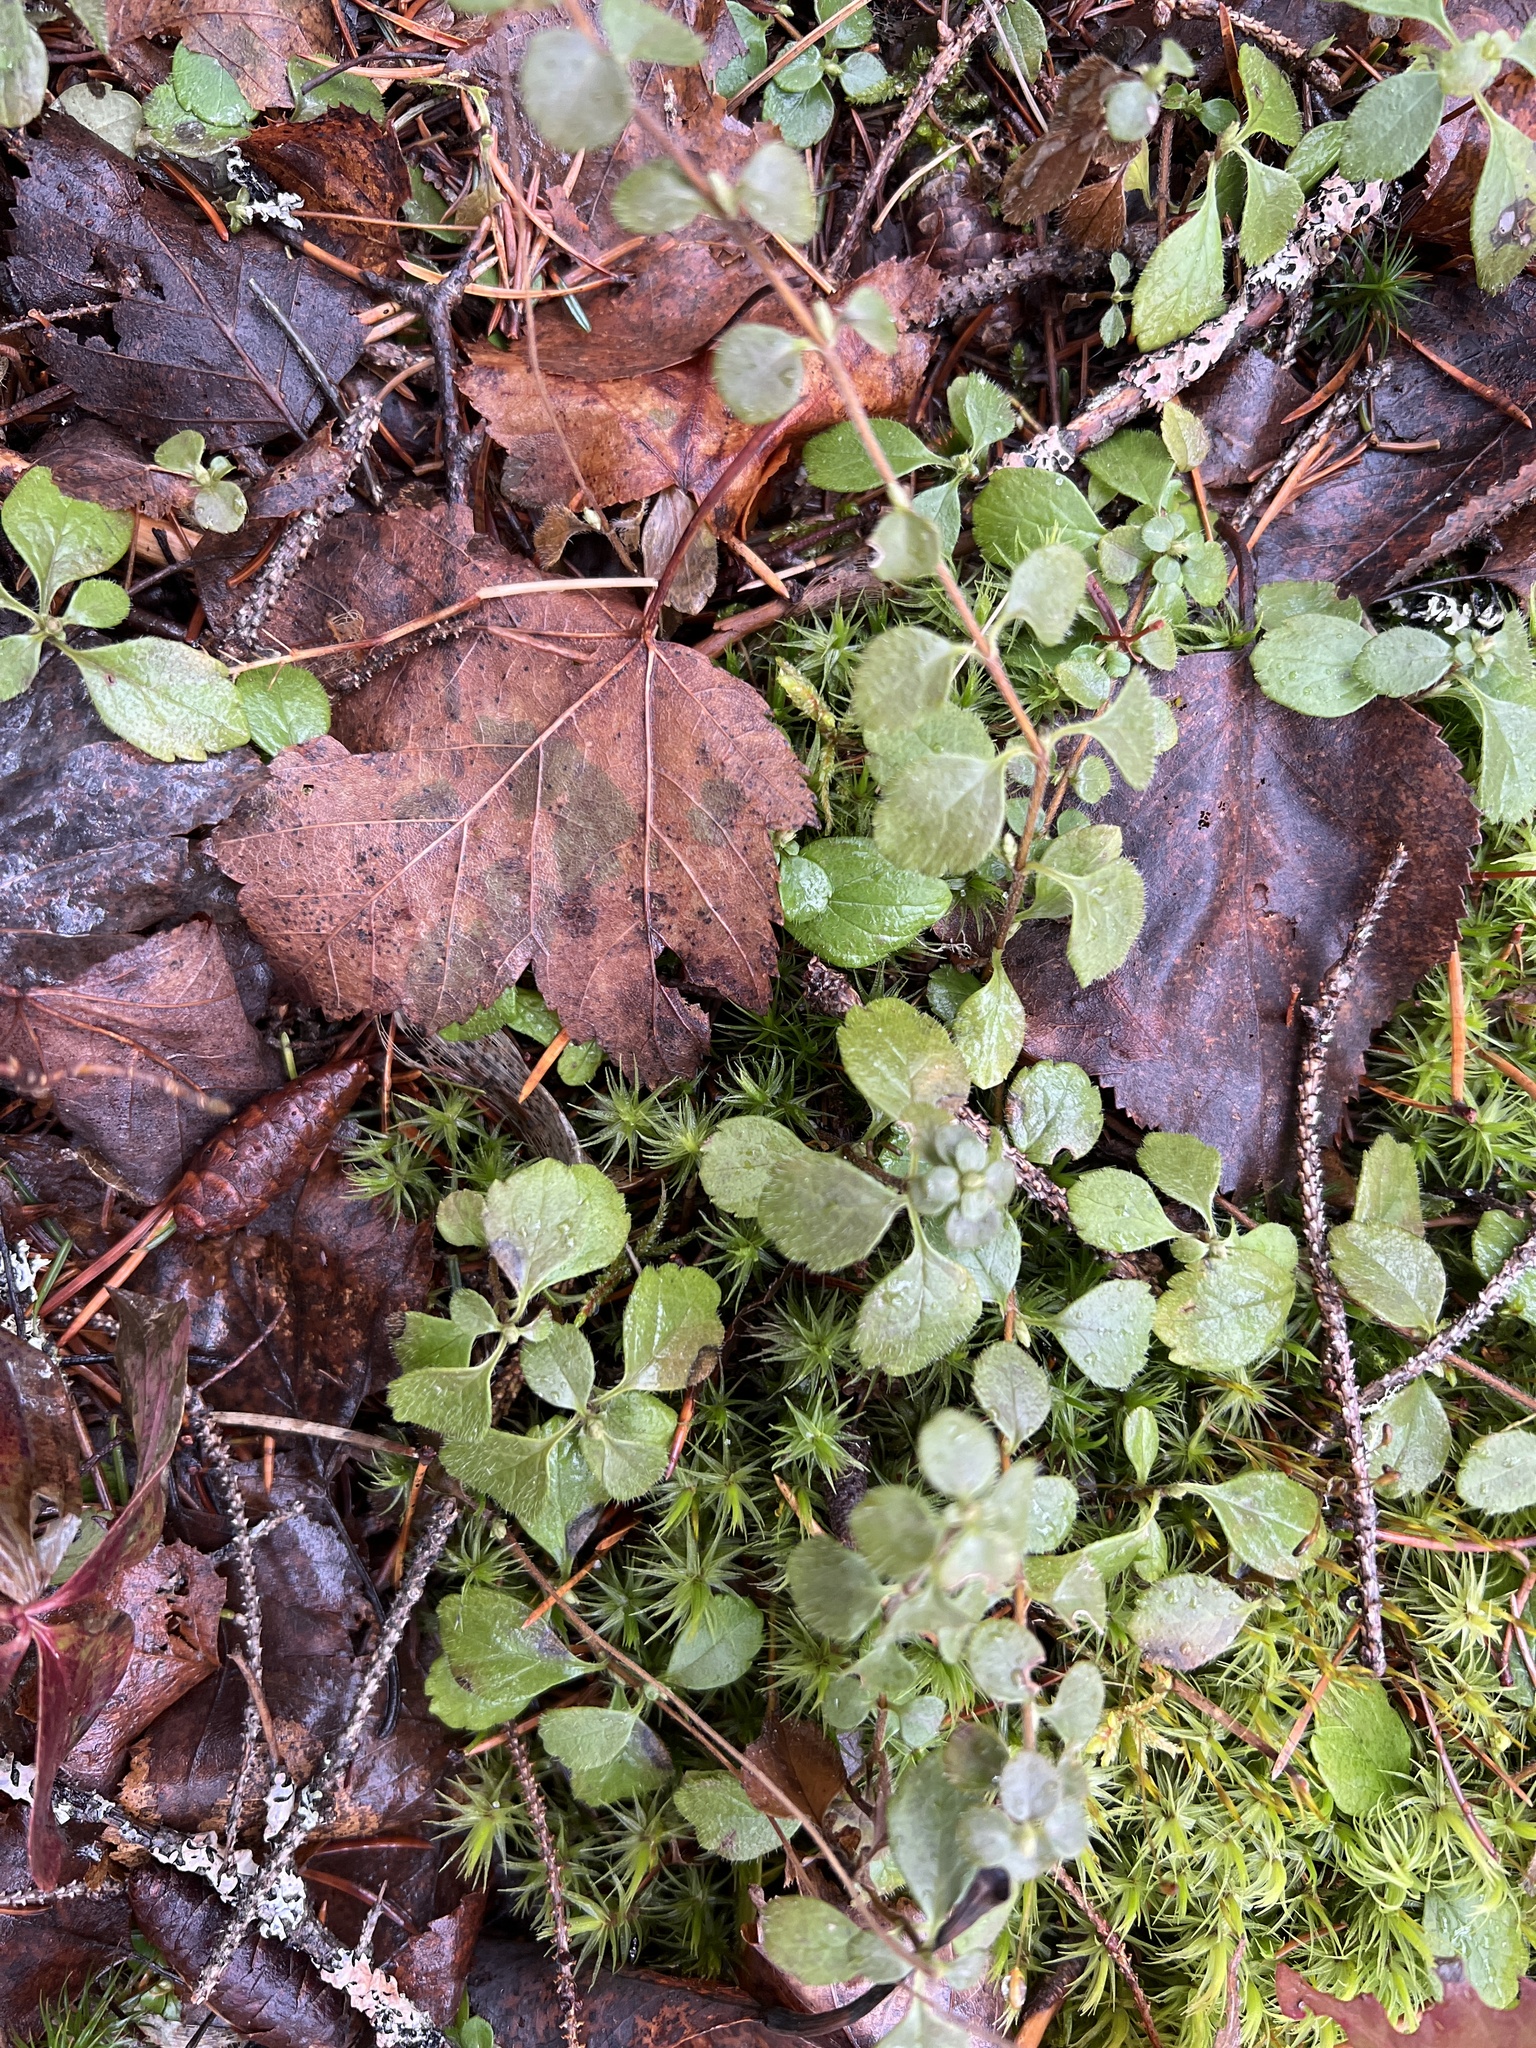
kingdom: Plantae
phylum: Tracheophyta
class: Magnoliopsida
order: Dipsacales
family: Caprifoliaceae
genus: Linnaea
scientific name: Linnaea borealis
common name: Twinflower
